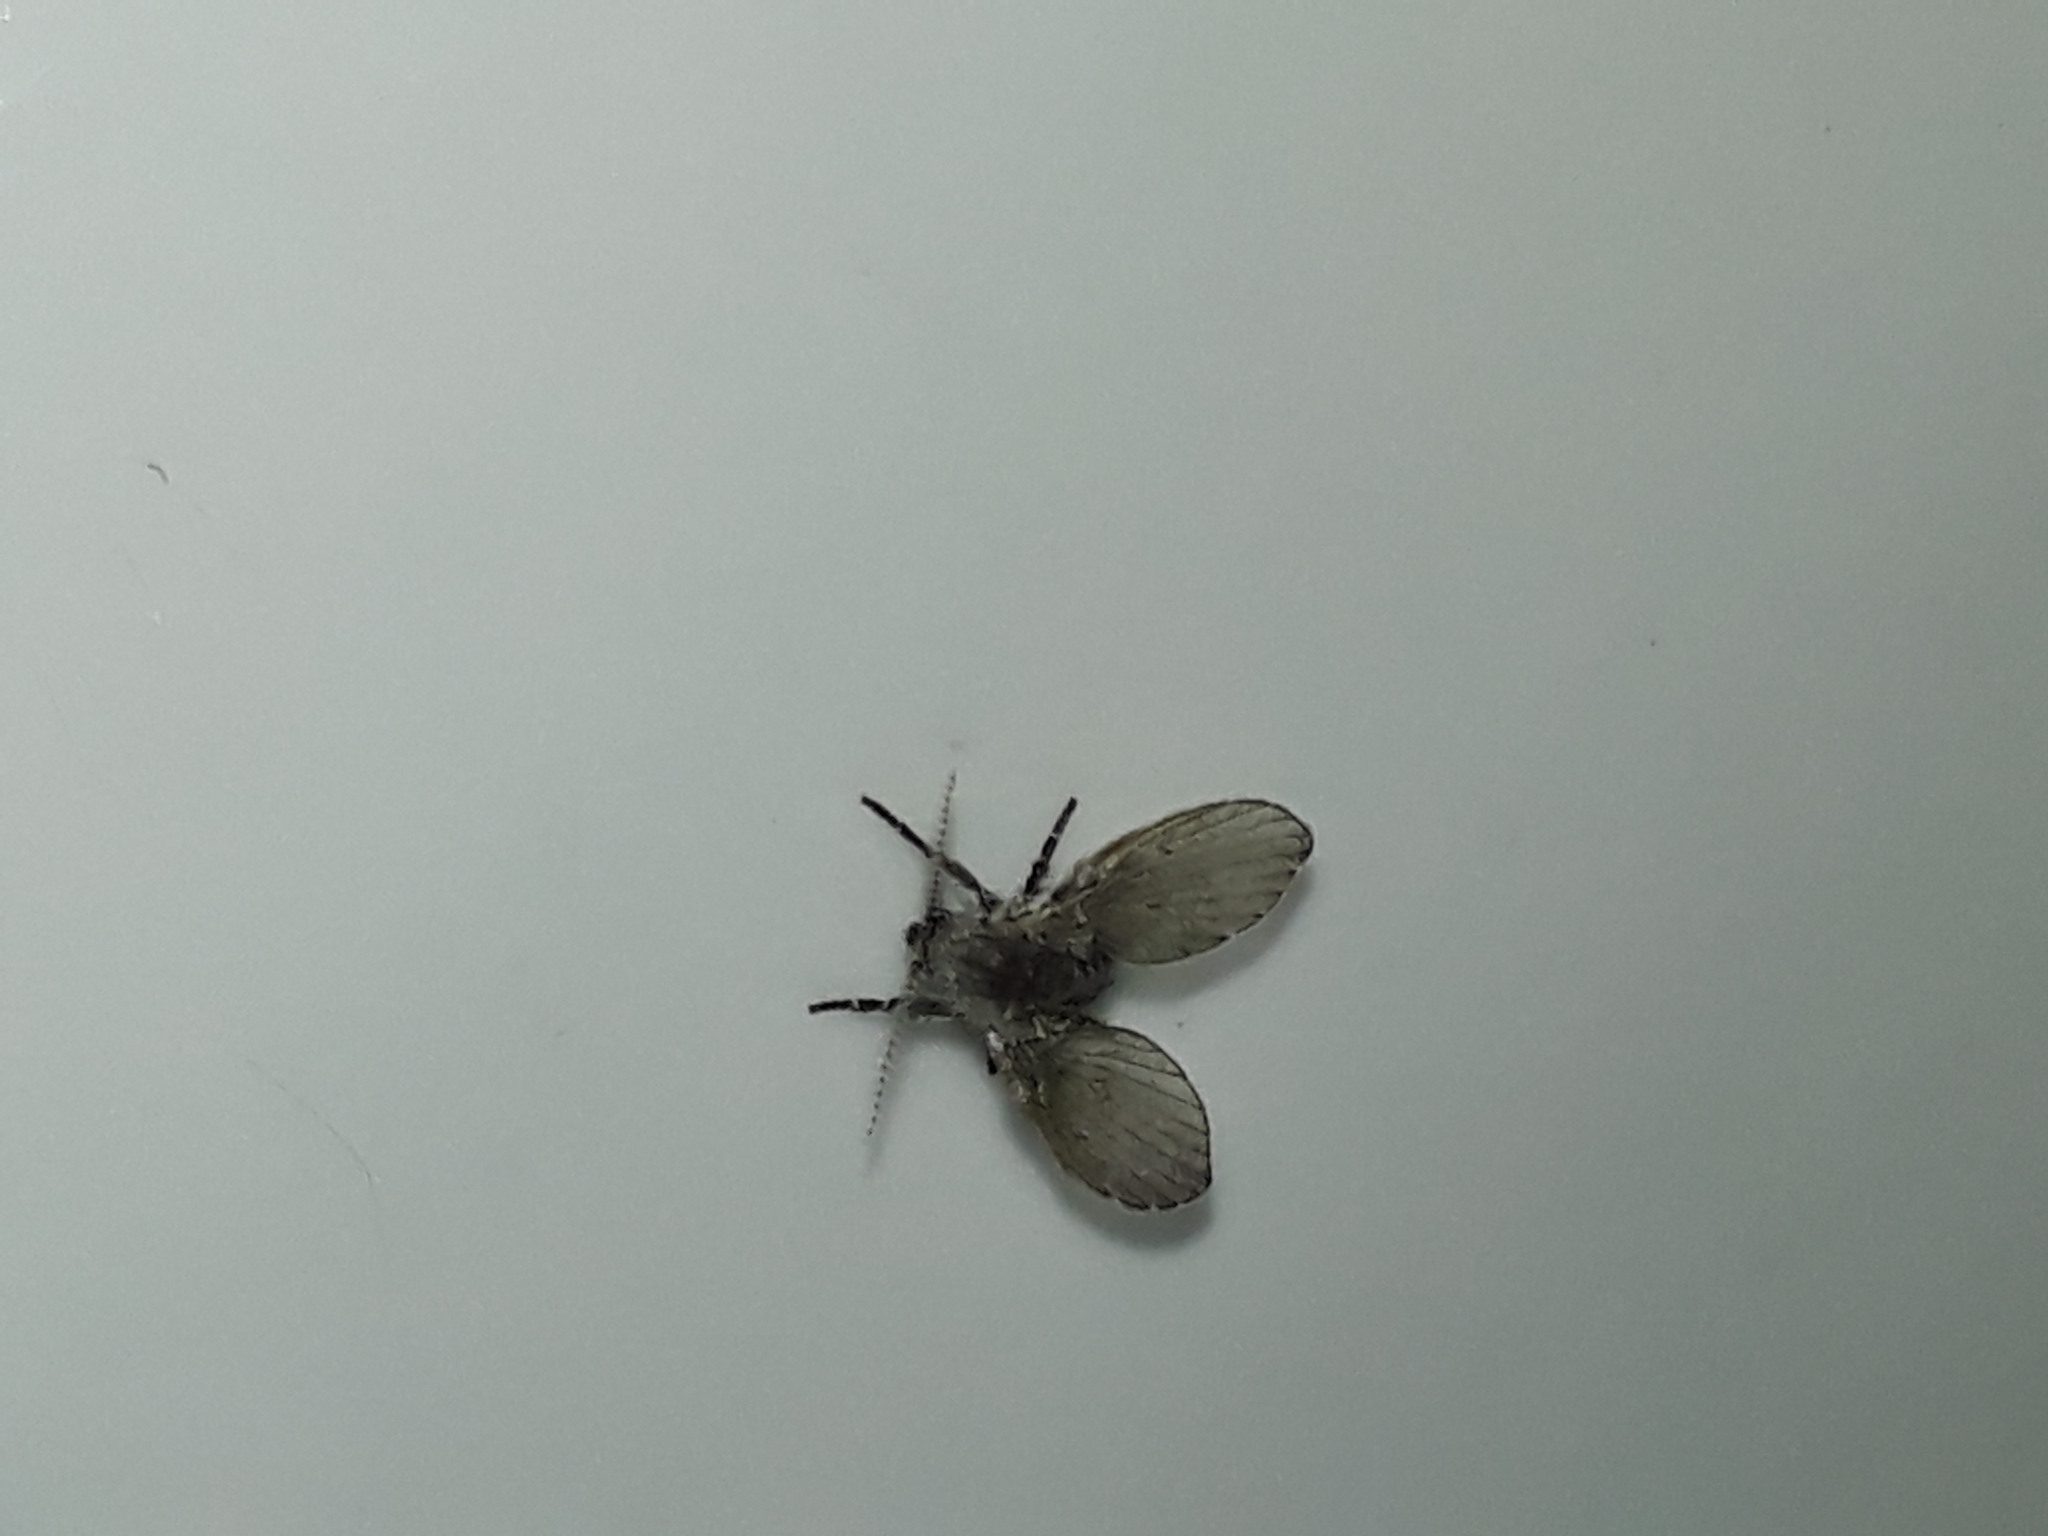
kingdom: Animalia
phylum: Arthropoda
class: Insecta
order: Diptera
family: Psychodidae
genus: Clogmia
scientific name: Clogmia albipunctatus
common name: White-spotted moth fly
